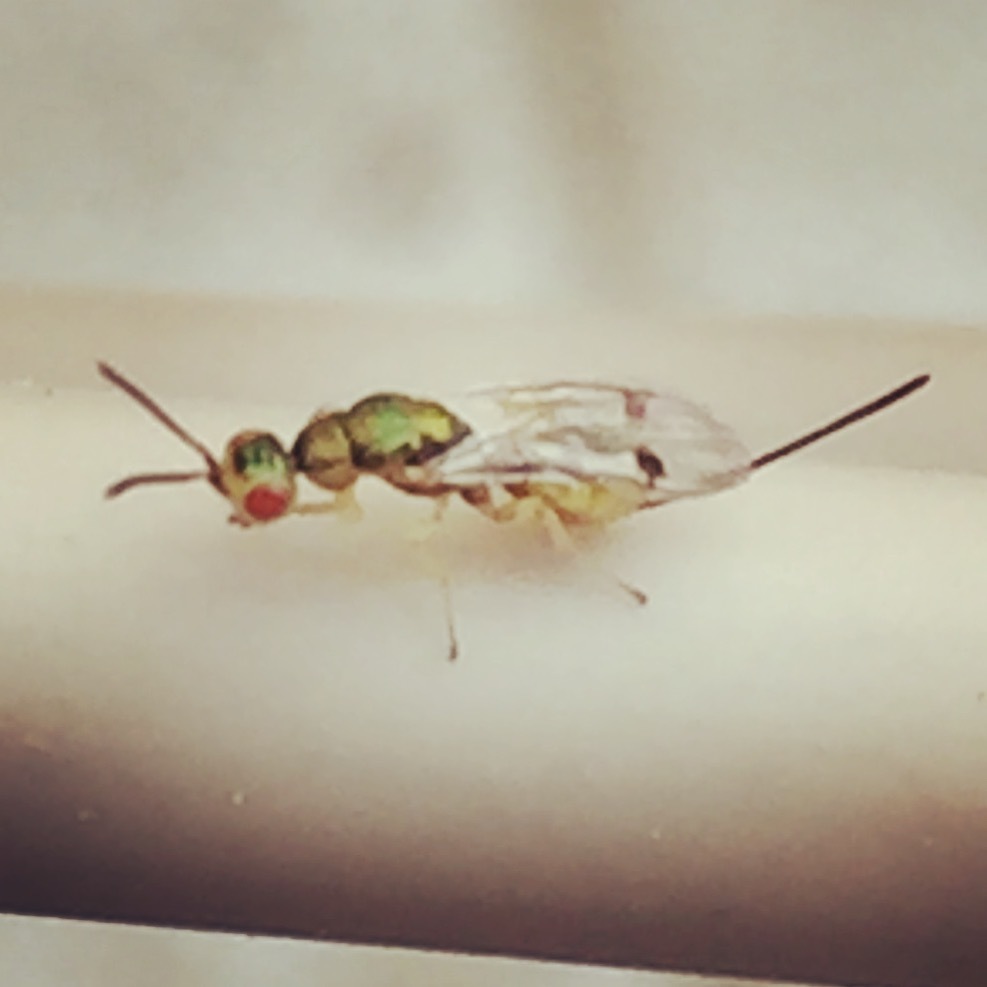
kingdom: Animalia
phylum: Arthropoda
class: Insecta
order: Hymenoptera
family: Torymidae
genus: Megastigmus
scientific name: Megastigmus stigmatizans
